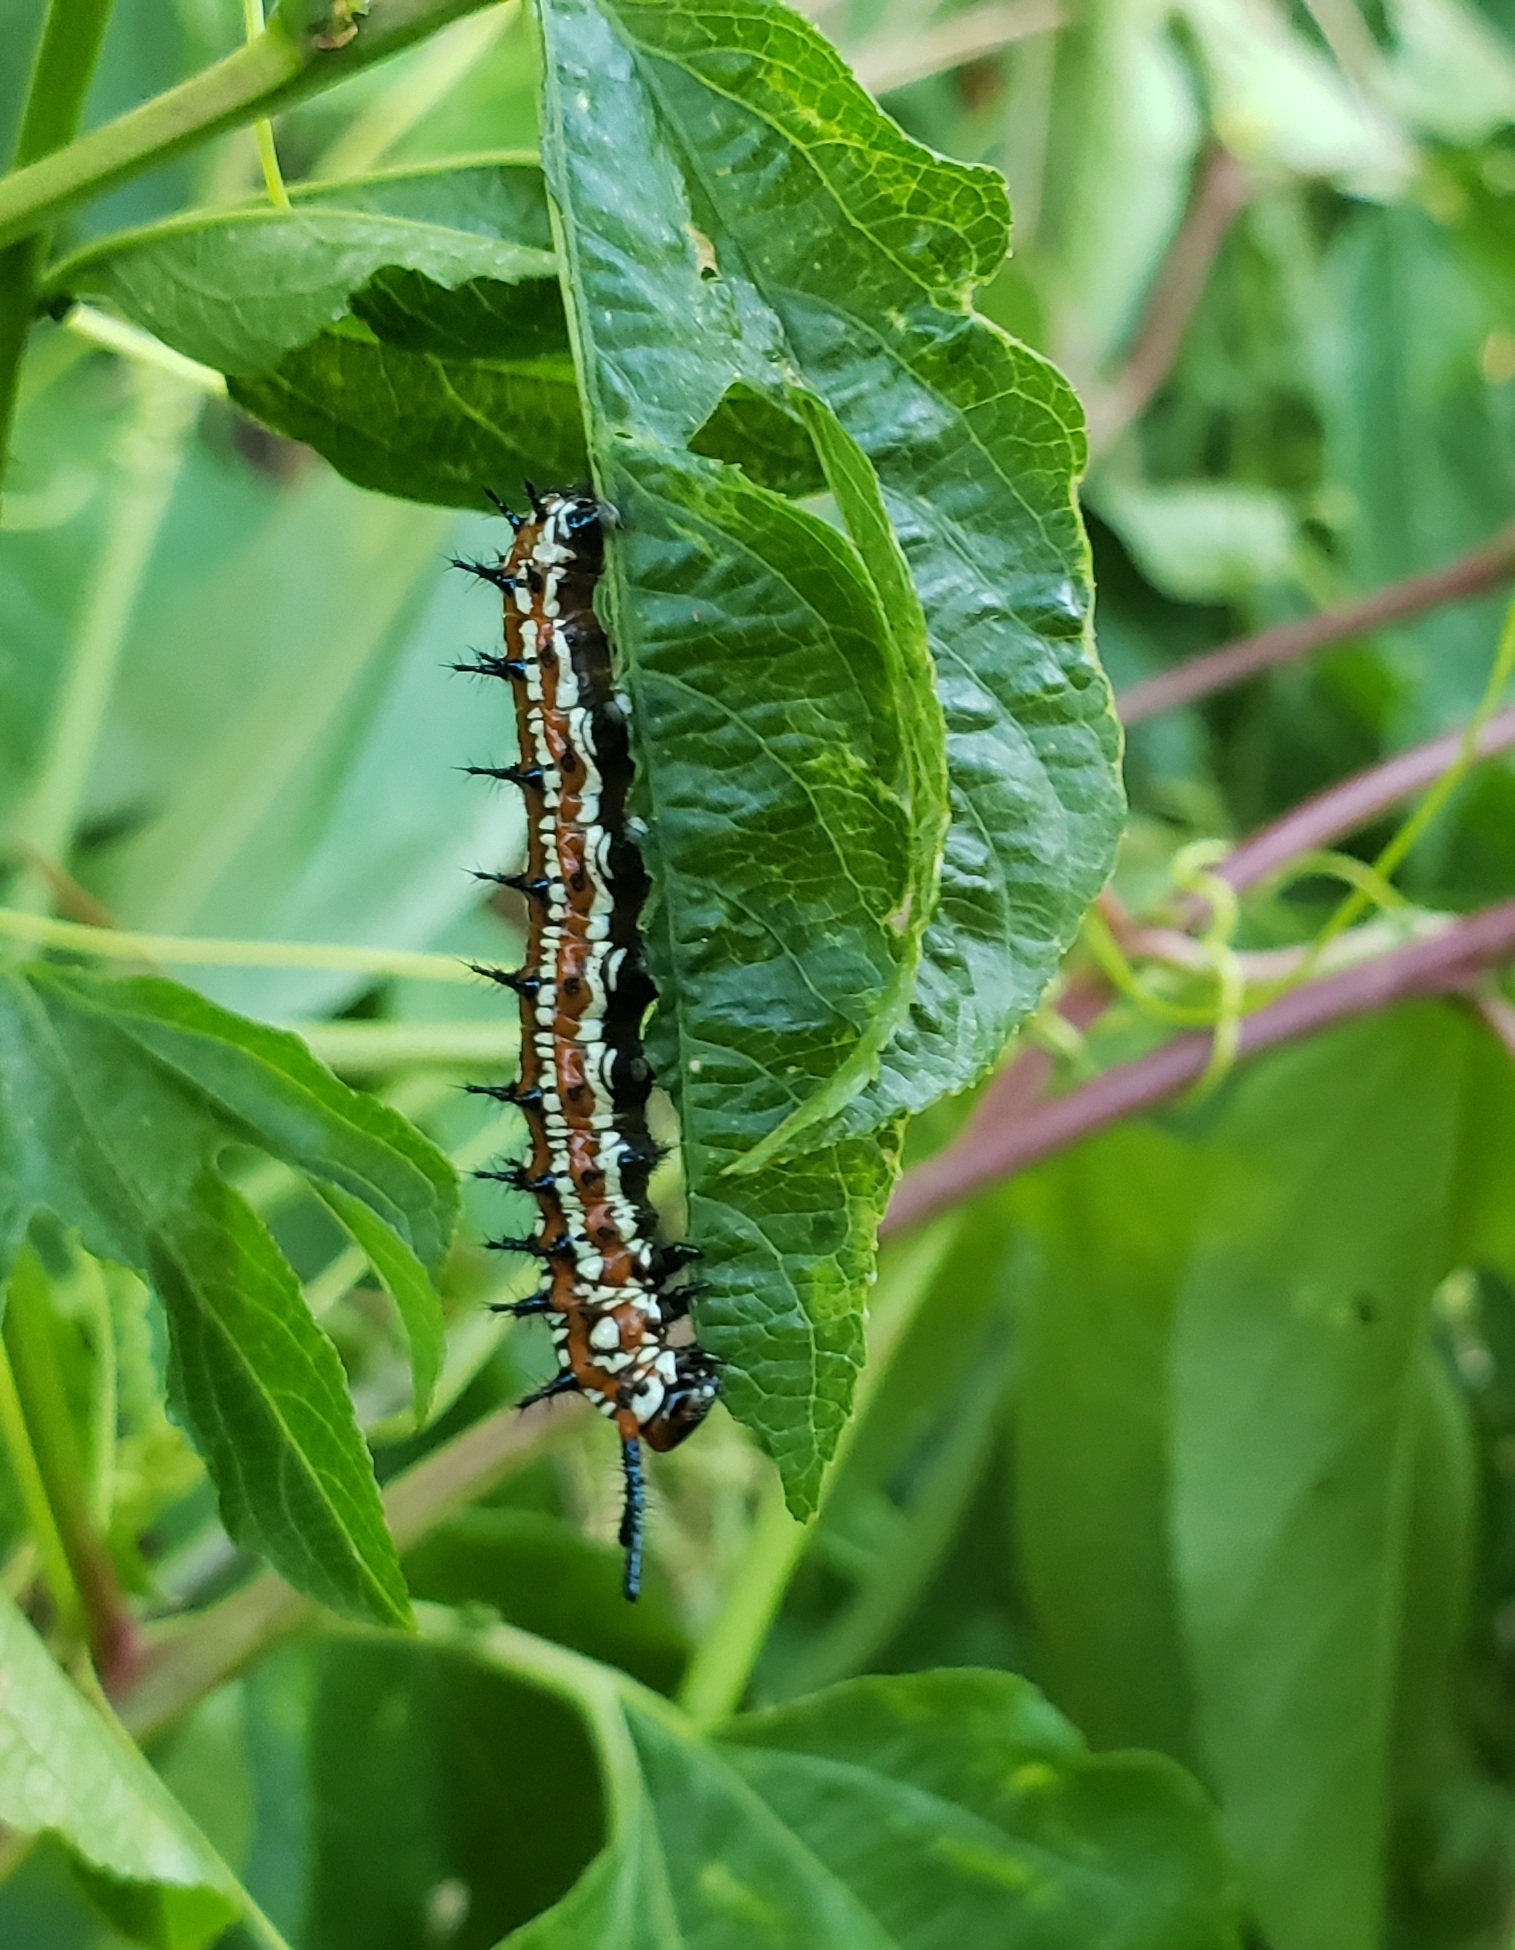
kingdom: Animalia
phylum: Arthropoda
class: Insecta
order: Lepidoptera
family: Nymphalidae
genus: Euptoieta
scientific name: Euptoieta claudia
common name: Variegated fritillary
